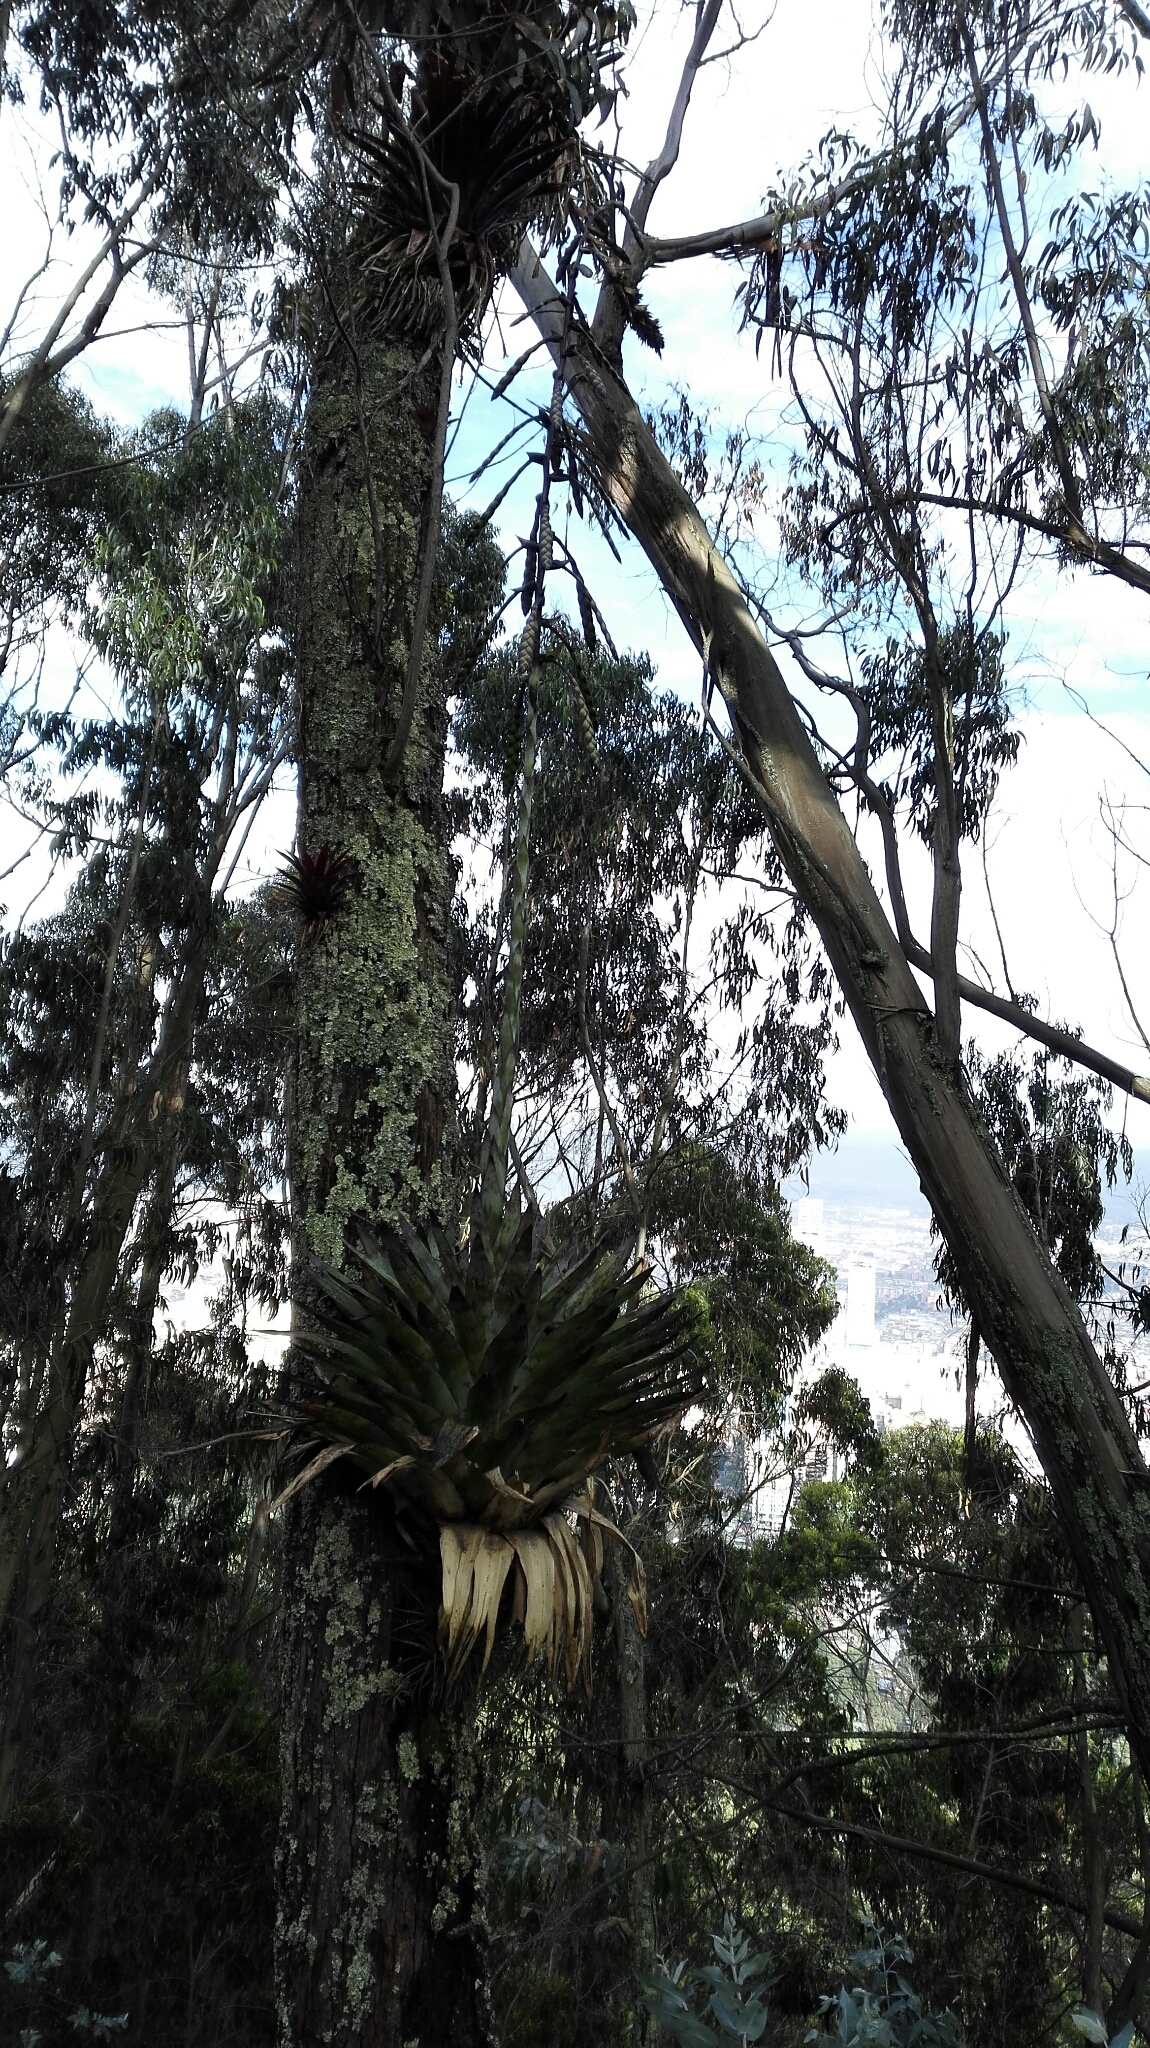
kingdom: Plantae
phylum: Tracheophyta
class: Liliopsida
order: Poales
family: Bromeliaceae
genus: Tillandsia
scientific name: Tillandsia francisci
